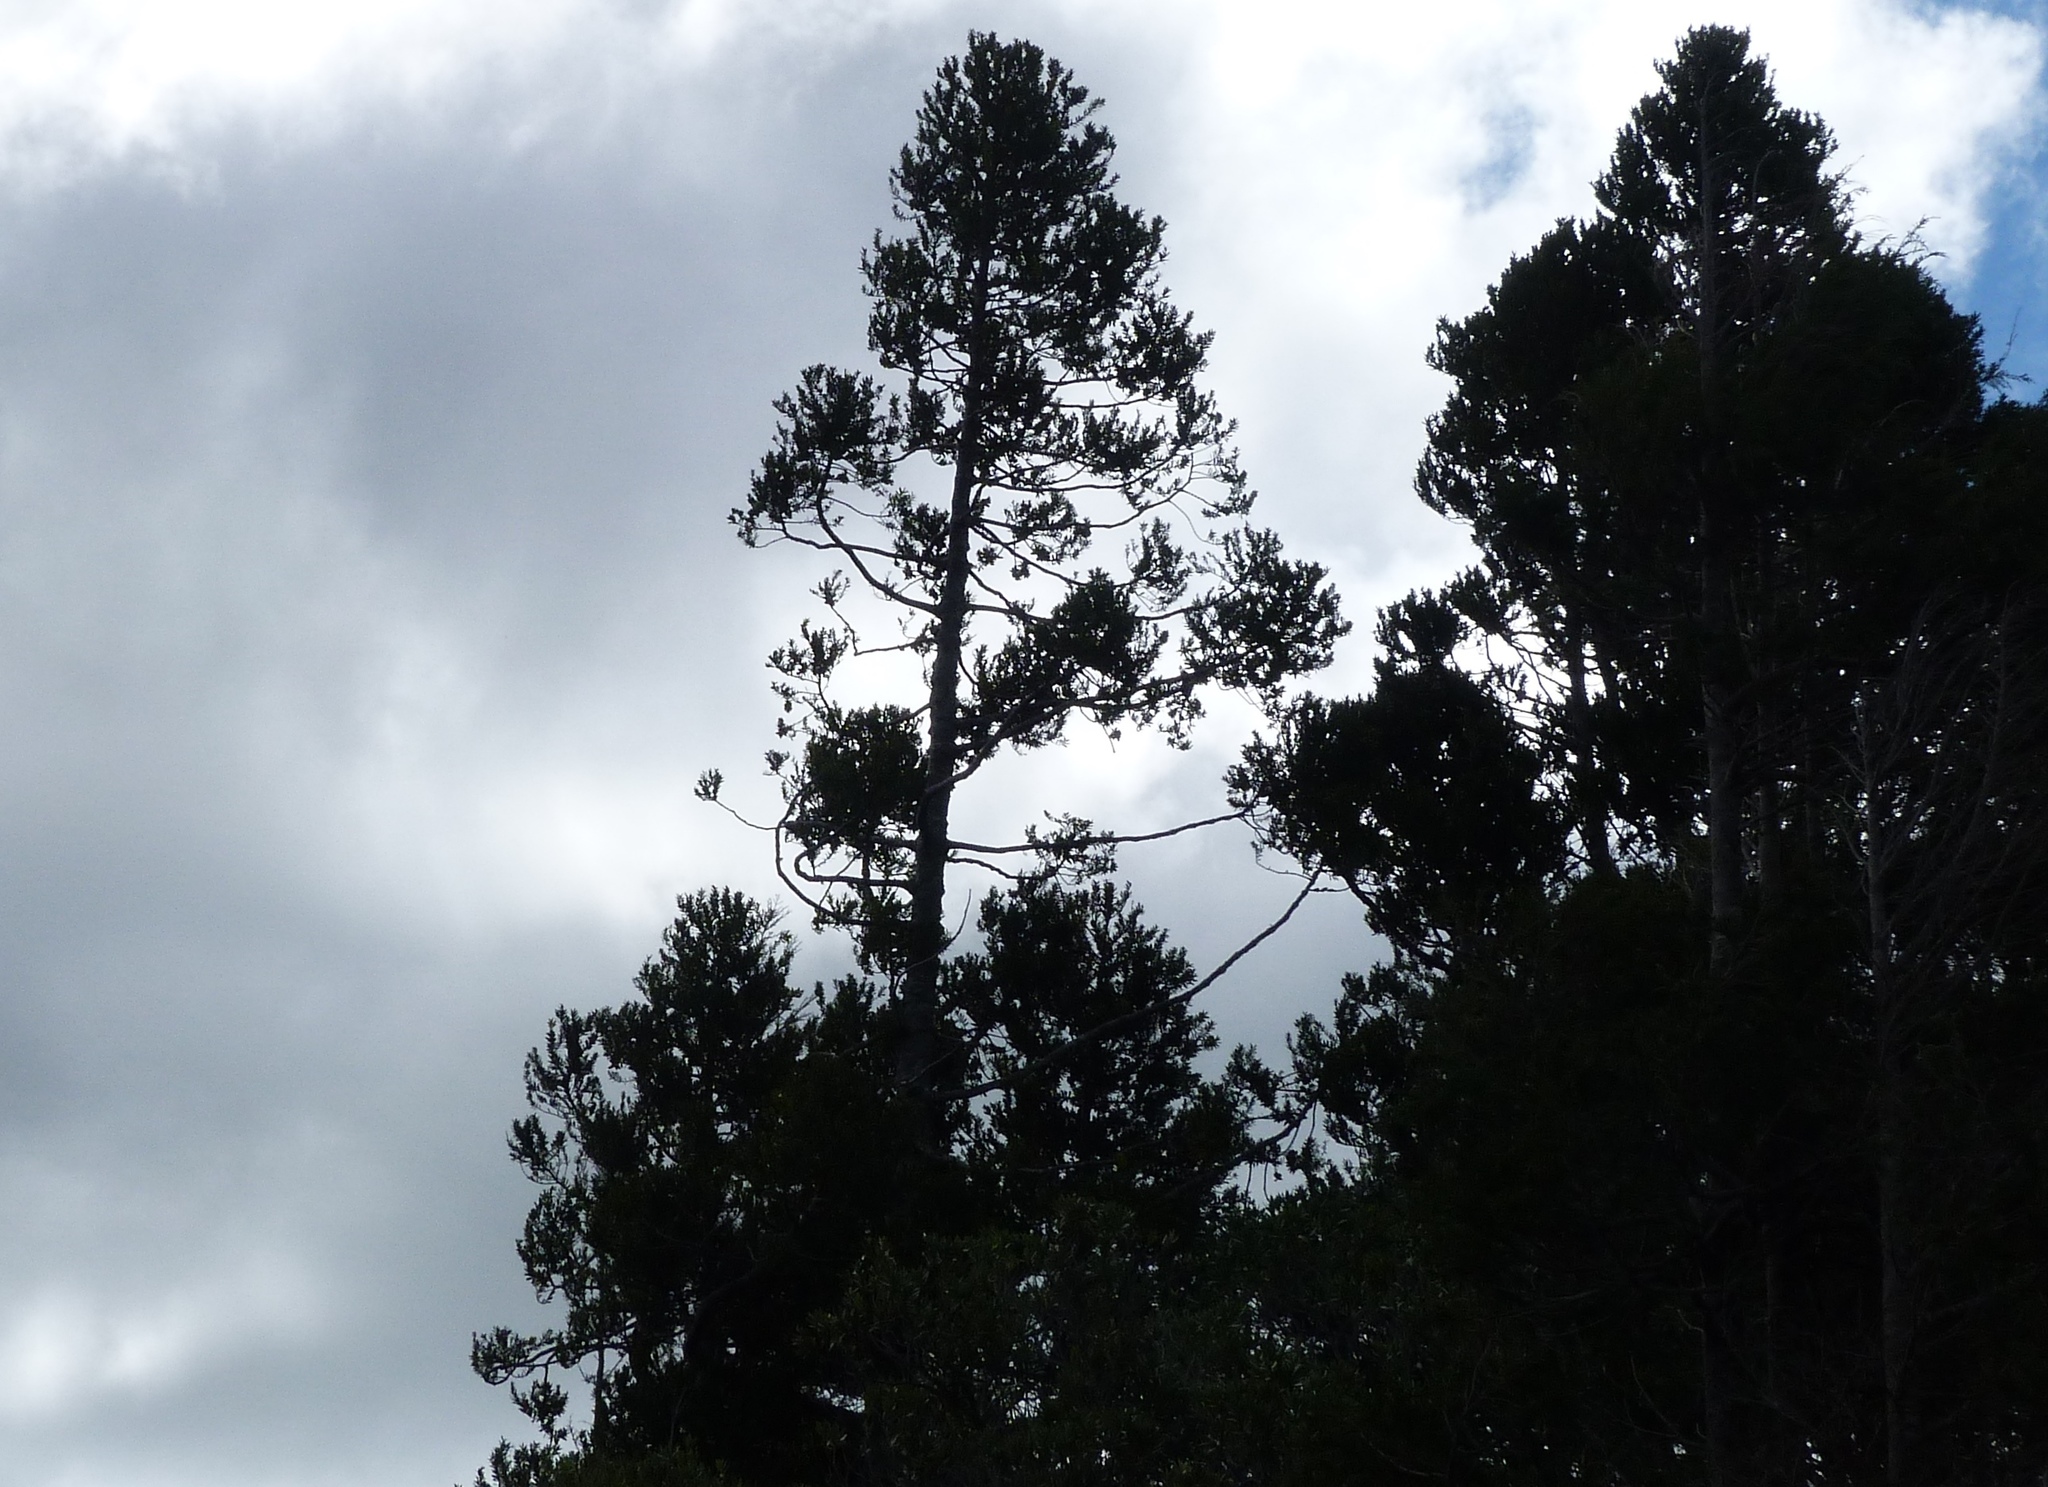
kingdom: Plantae
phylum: Tracheophyta
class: Pinopsida
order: Pinales
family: Araucariaceae
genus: Agathis
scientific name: Agathis australis
